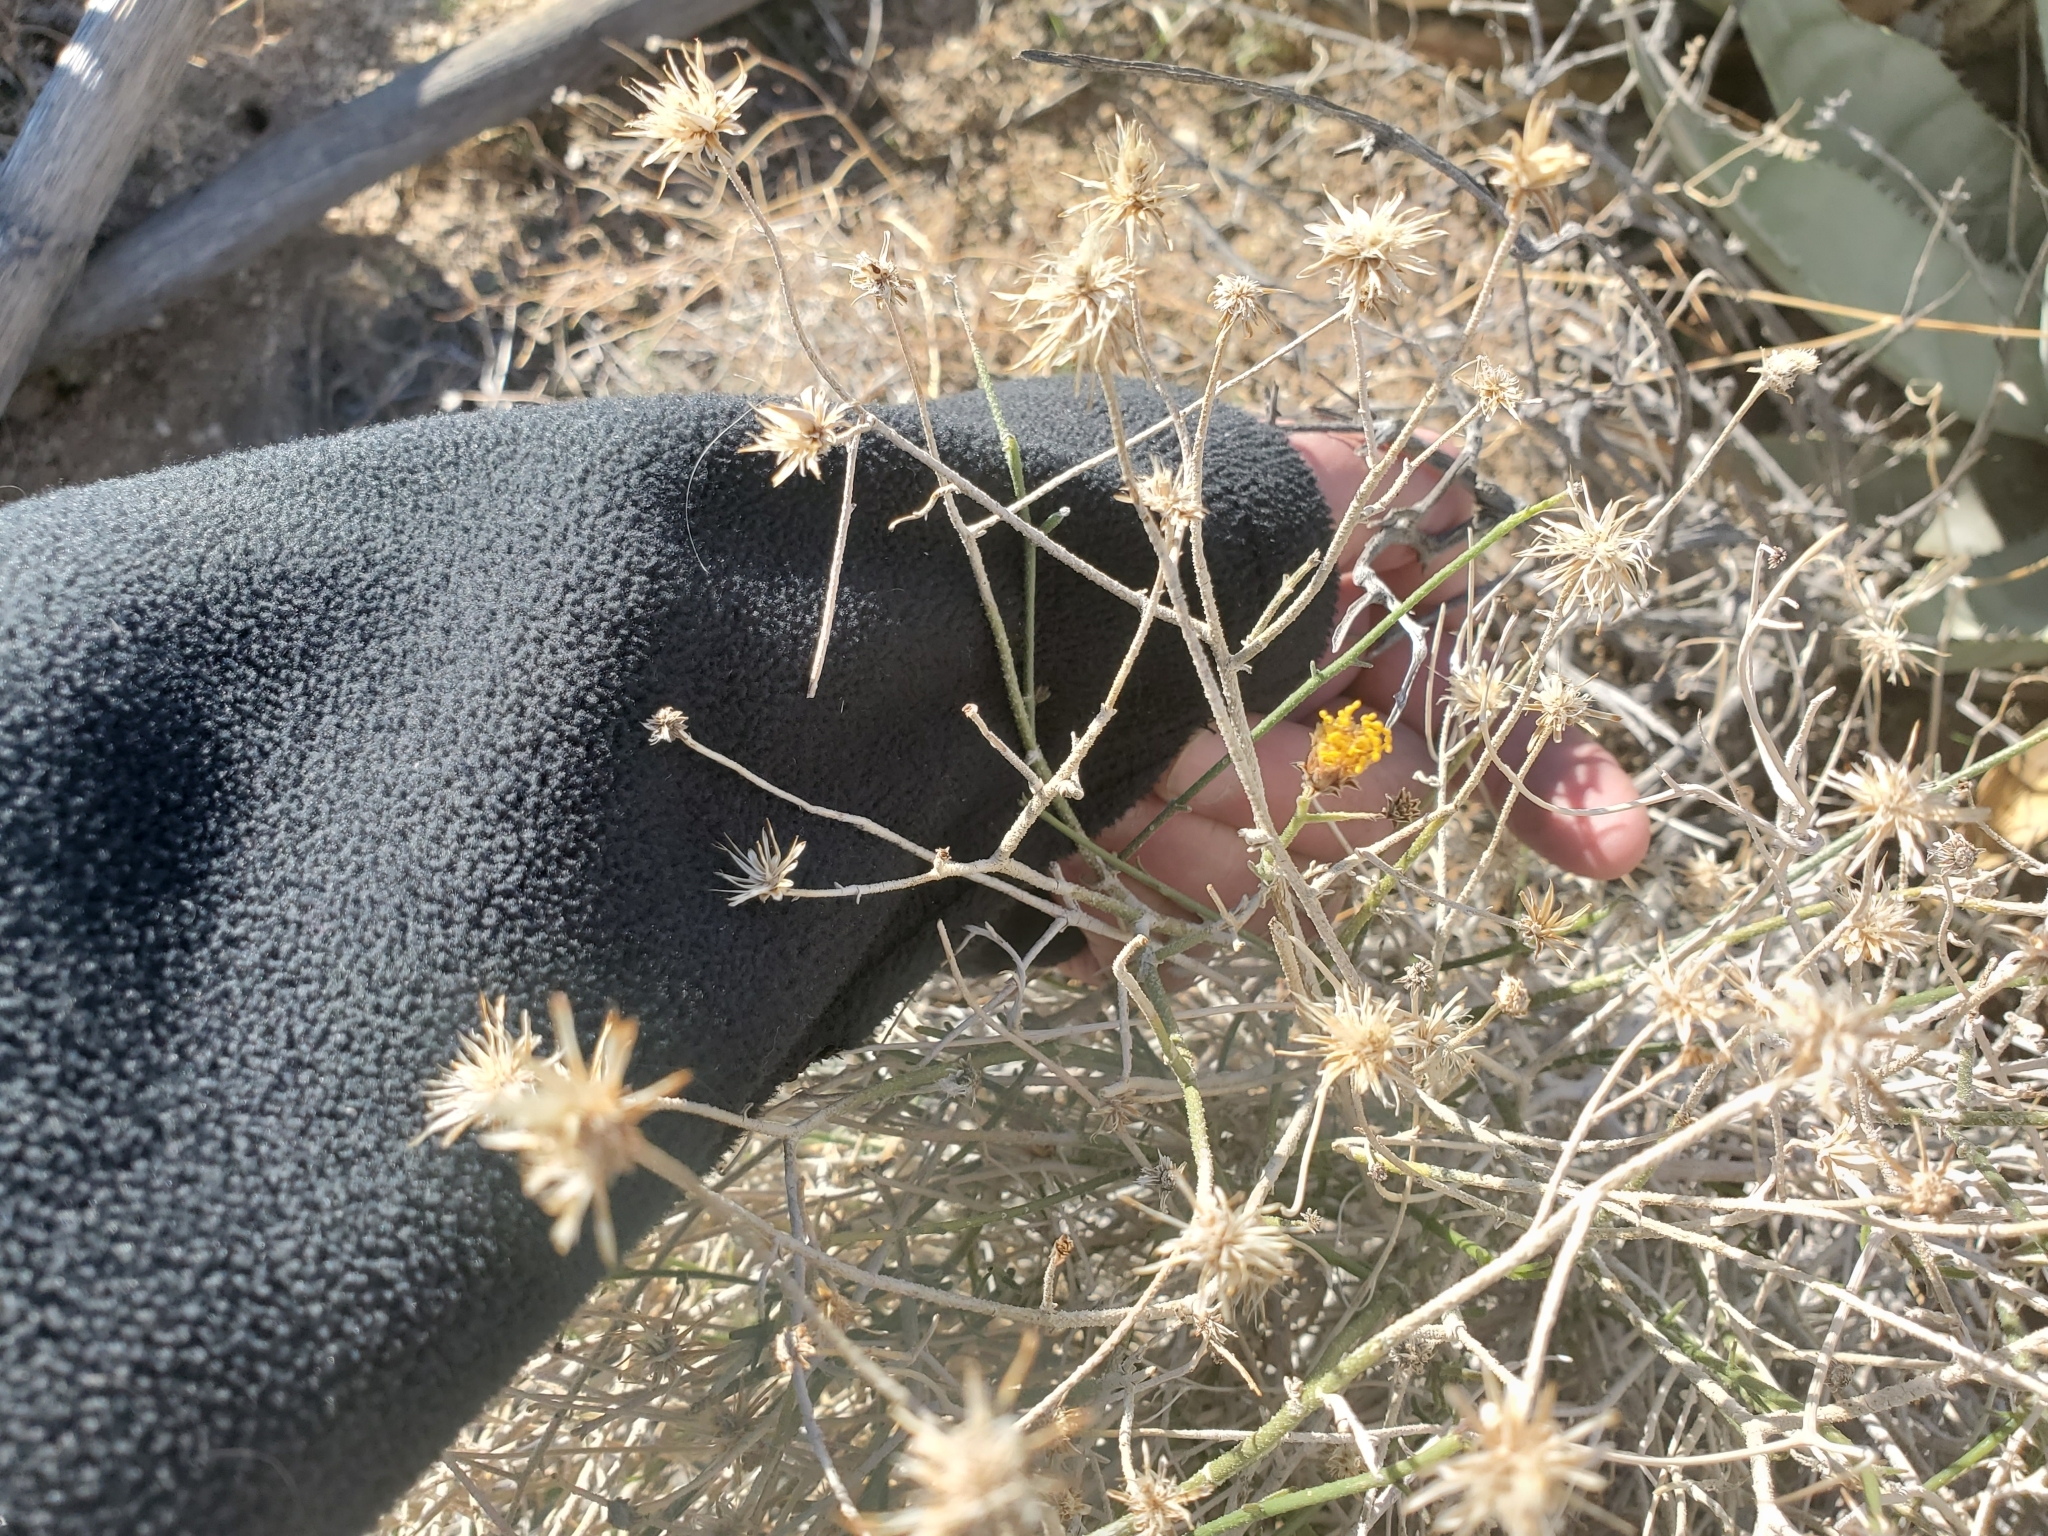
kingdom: Plantae
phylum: Tracheophyta
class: Magnoliopsida
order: Asterales
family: Asteraceae
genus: Bebbia
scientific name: Bebbia juncea
